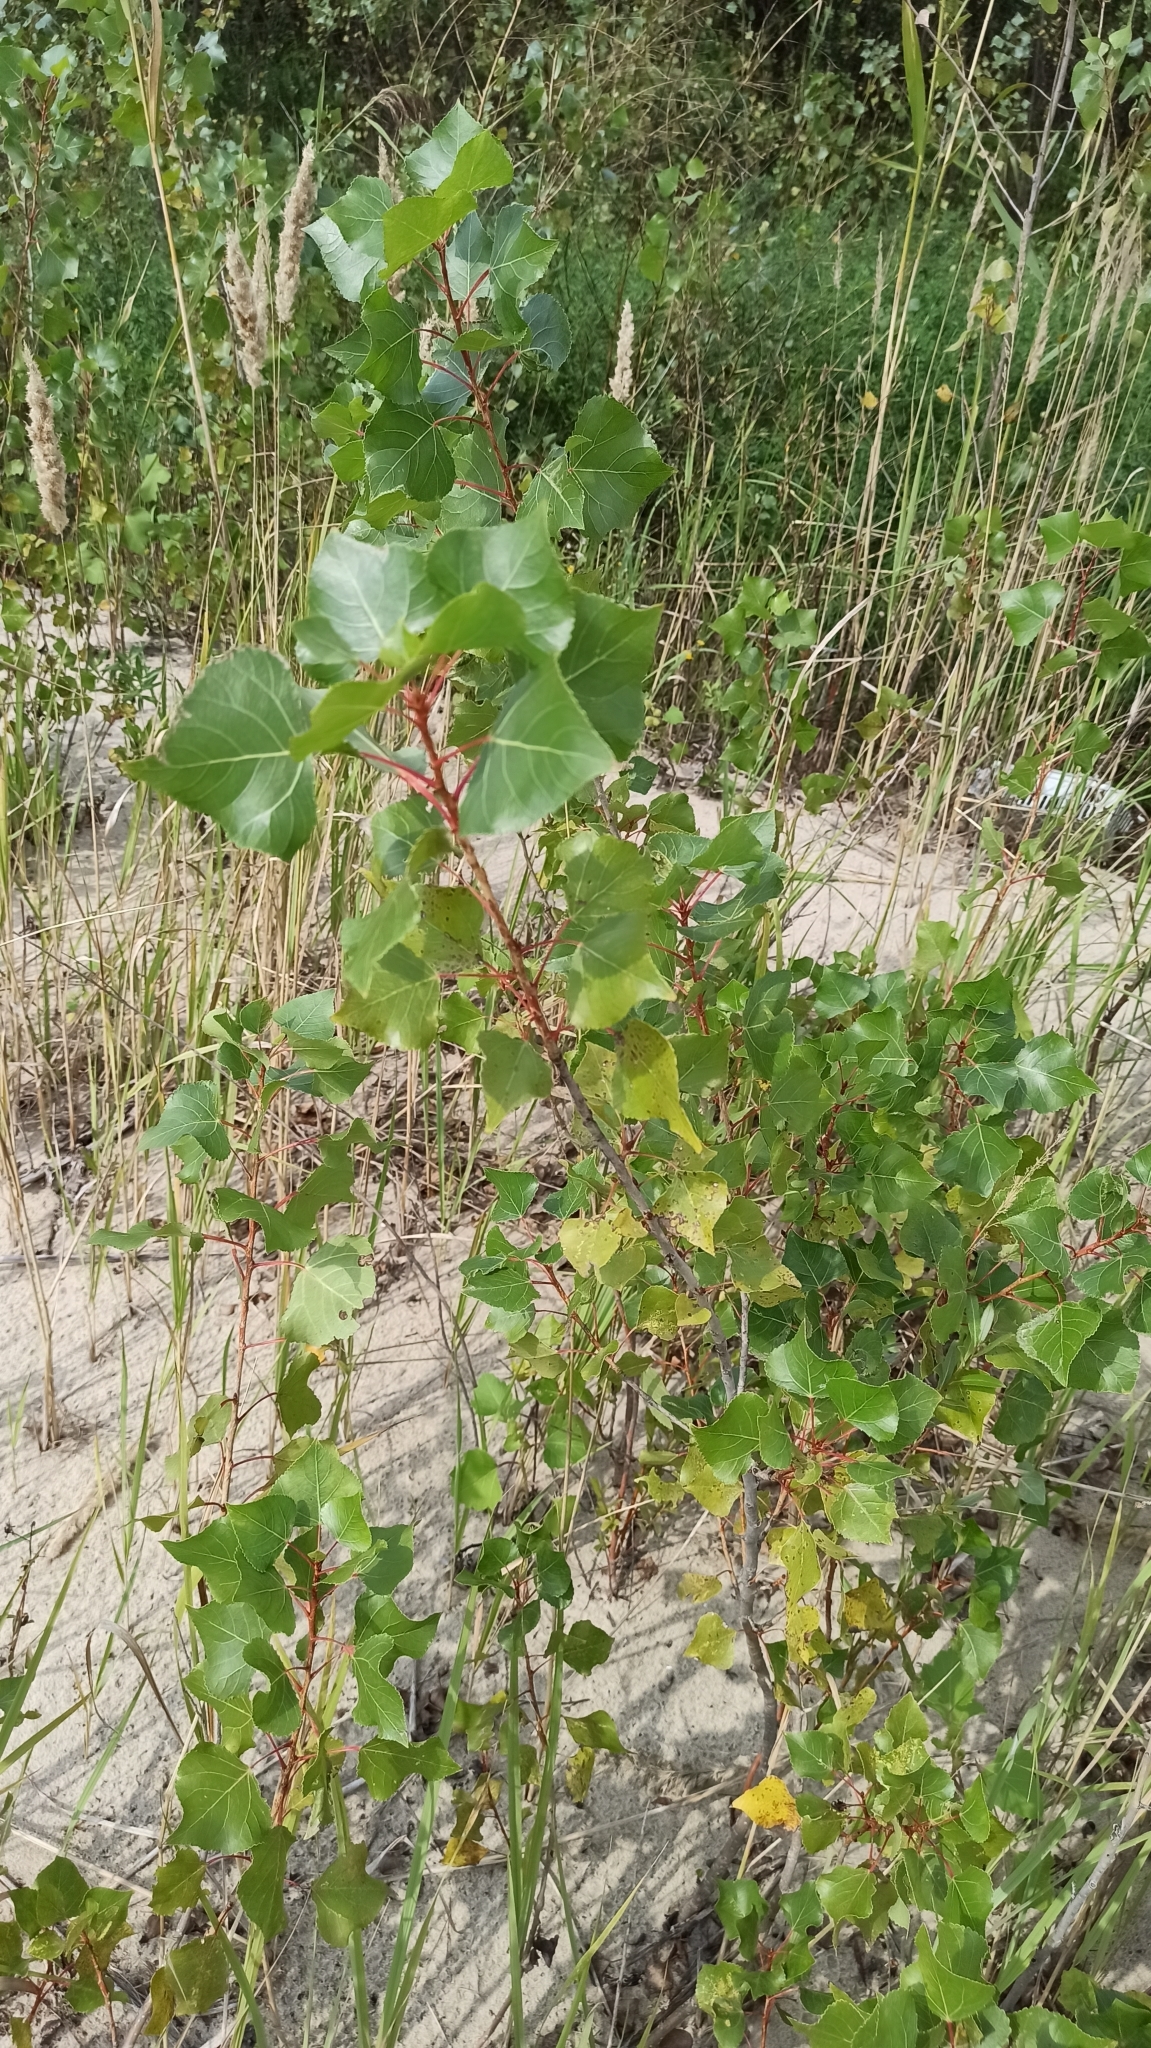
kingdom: Plantae
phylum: Tracheophyta
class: Magnoliopsida
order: Malpighiales
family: Salicaceae
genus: Populus
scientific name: Populus nigra
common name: Black poplar
